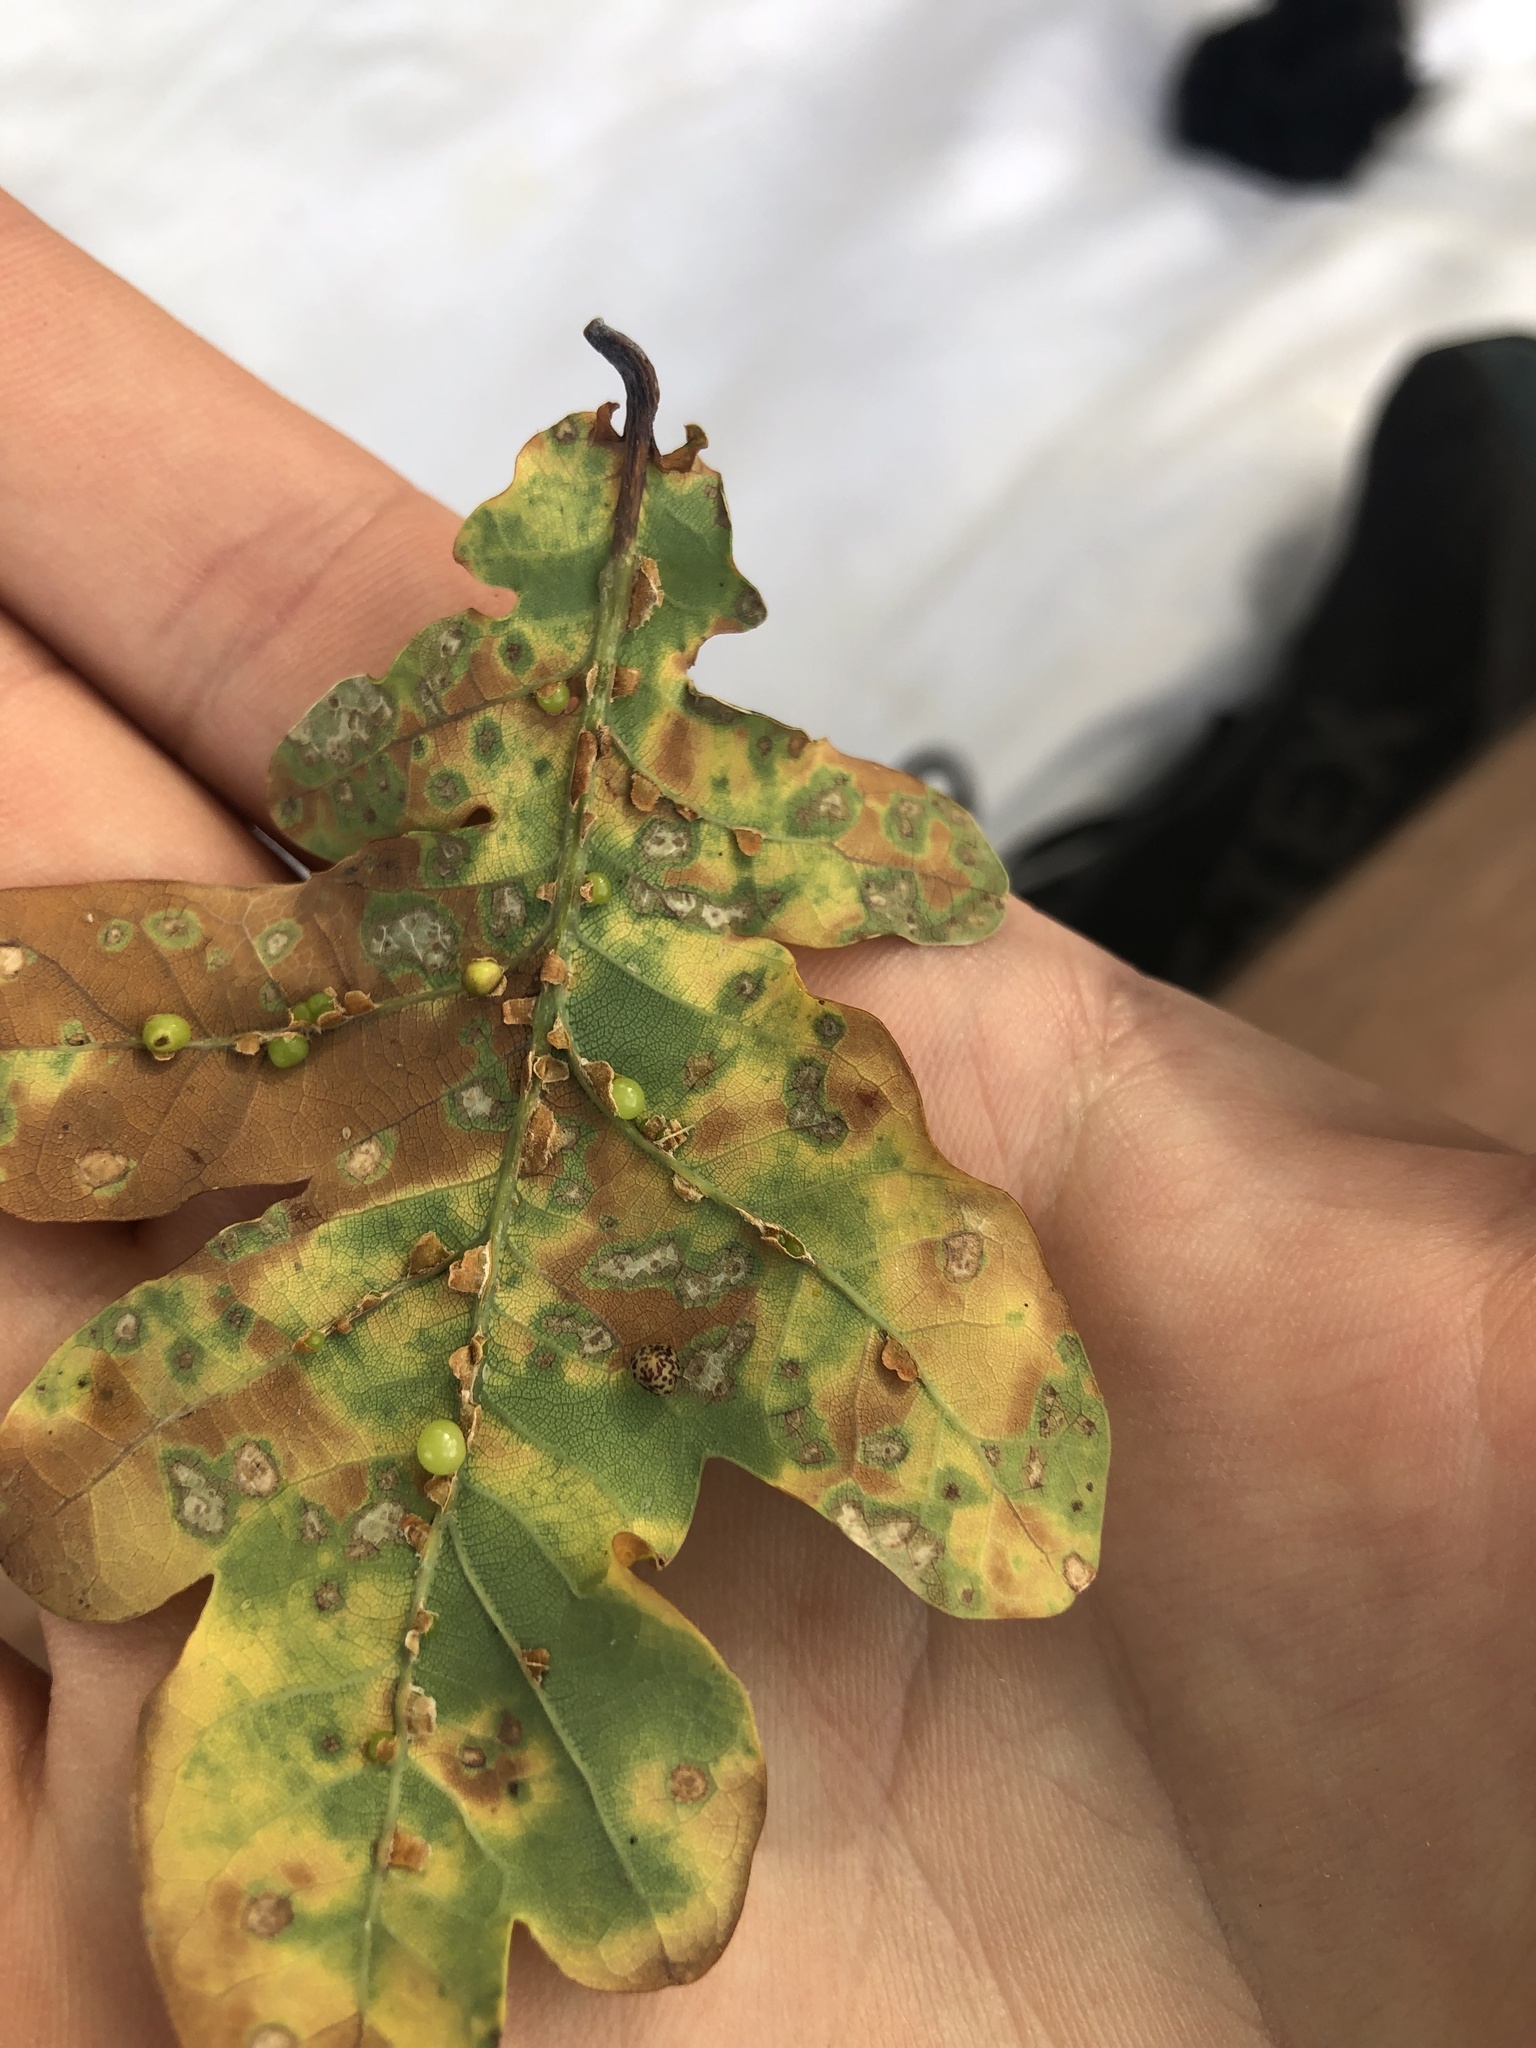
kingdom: Animalia
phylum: Arthropoda
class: Insecta
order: Hymenoptera
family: Cynipidae
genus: Neuroterus
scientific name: Neuroterus anthracinus
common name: Oyster gall
